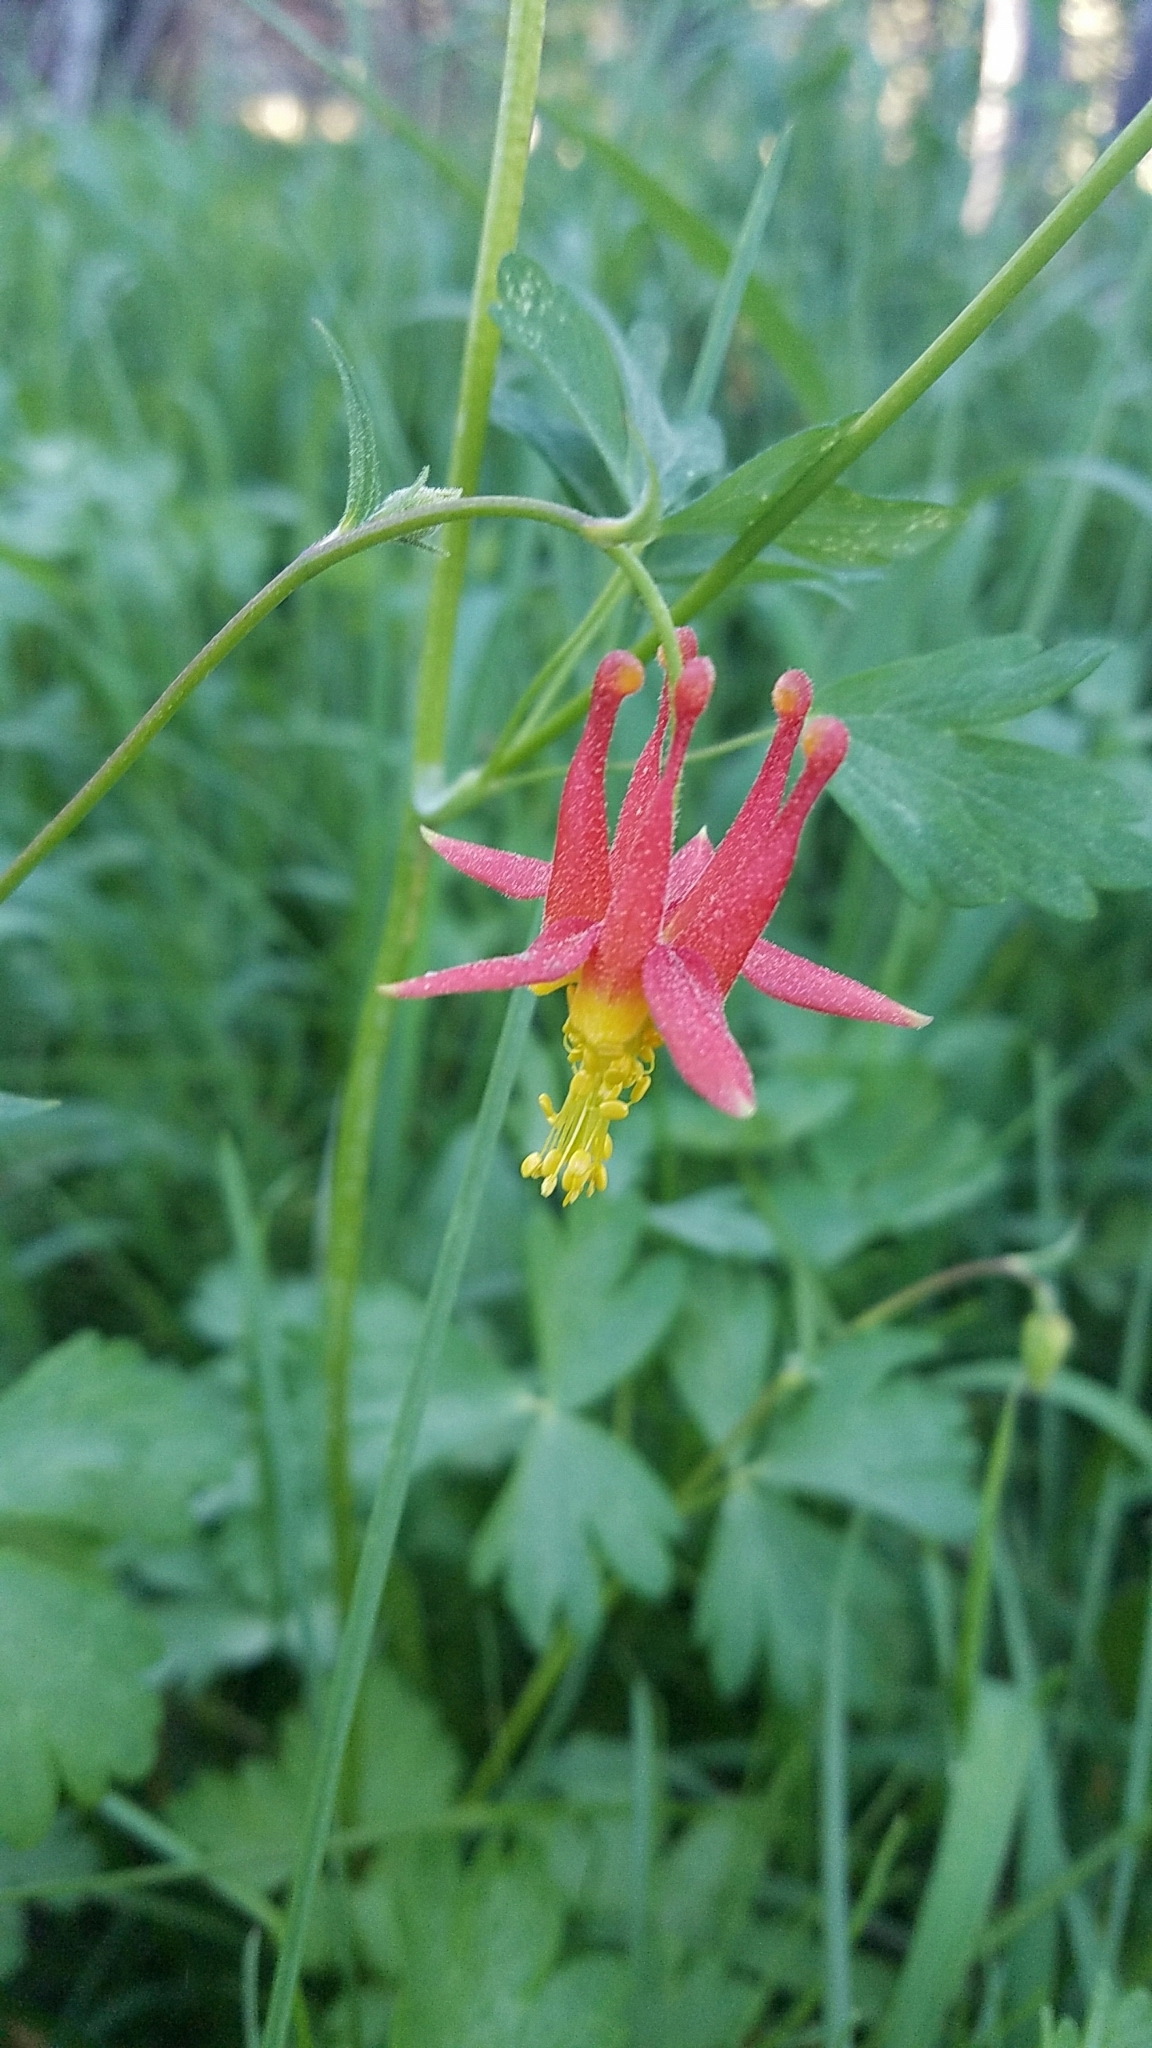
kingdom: Plantae
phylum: Tracheophyta
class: Magnoliopsida
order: Ranunculales
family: Ranunculaceae
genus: Aquilegia
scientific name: Aquilegia formosa
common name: Sitka columbine
